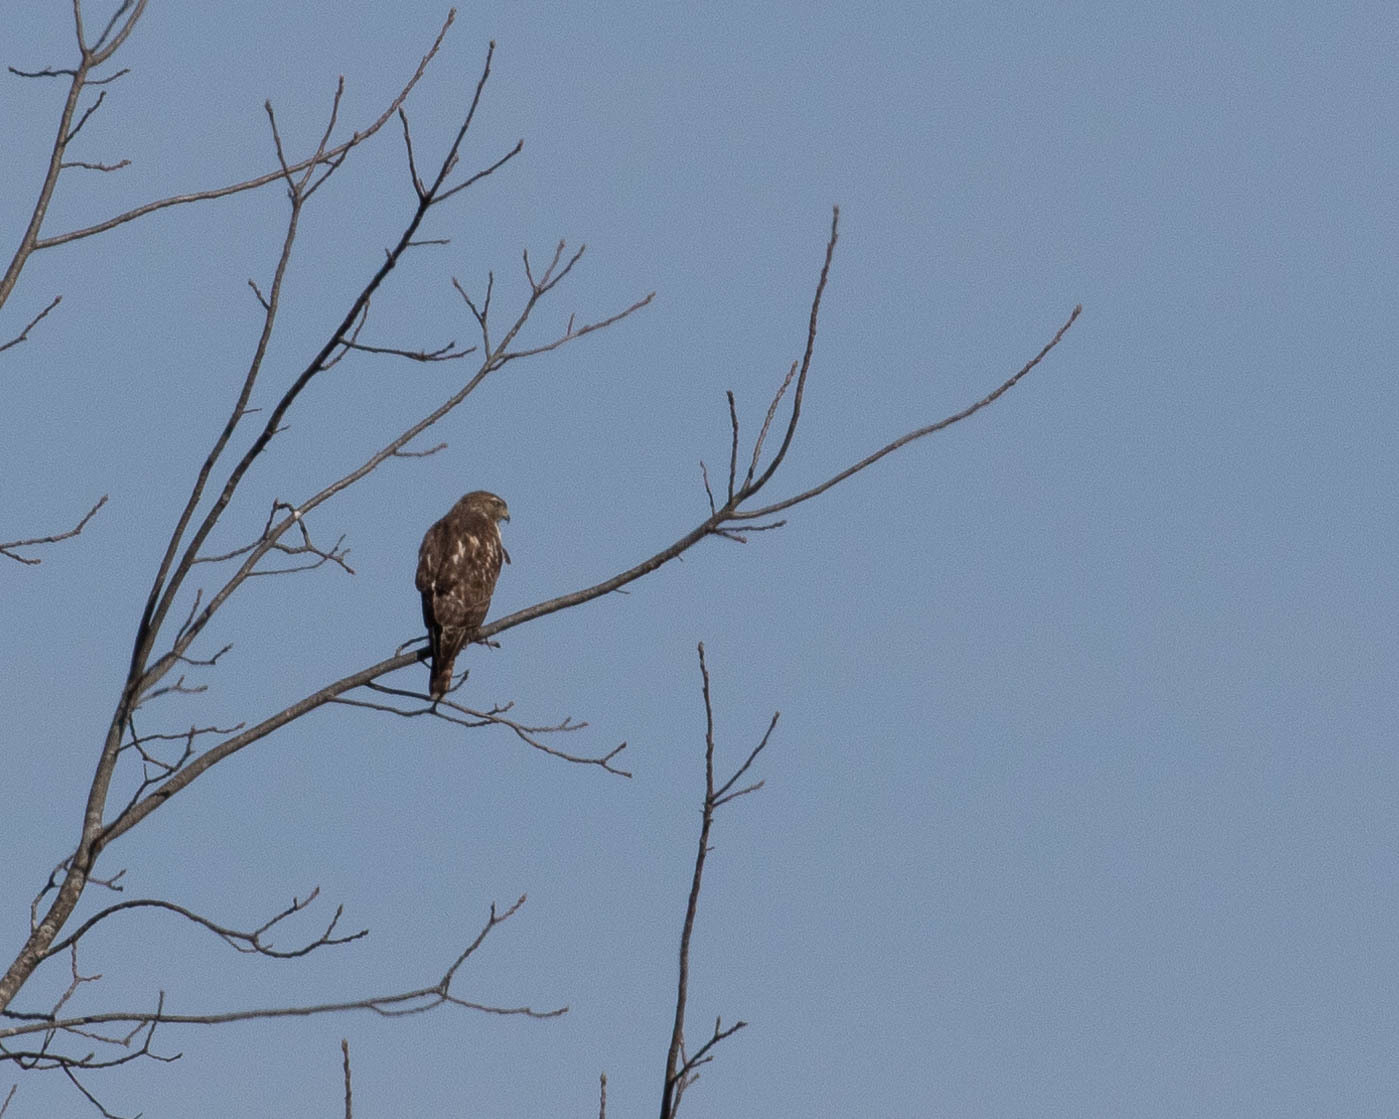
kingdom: Animalia
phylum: Chordata
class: Aves
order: Accipitriformes
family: Accipitridae
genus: Buteo
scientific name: Buteo lineatus
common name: Red-shouldered hawk
